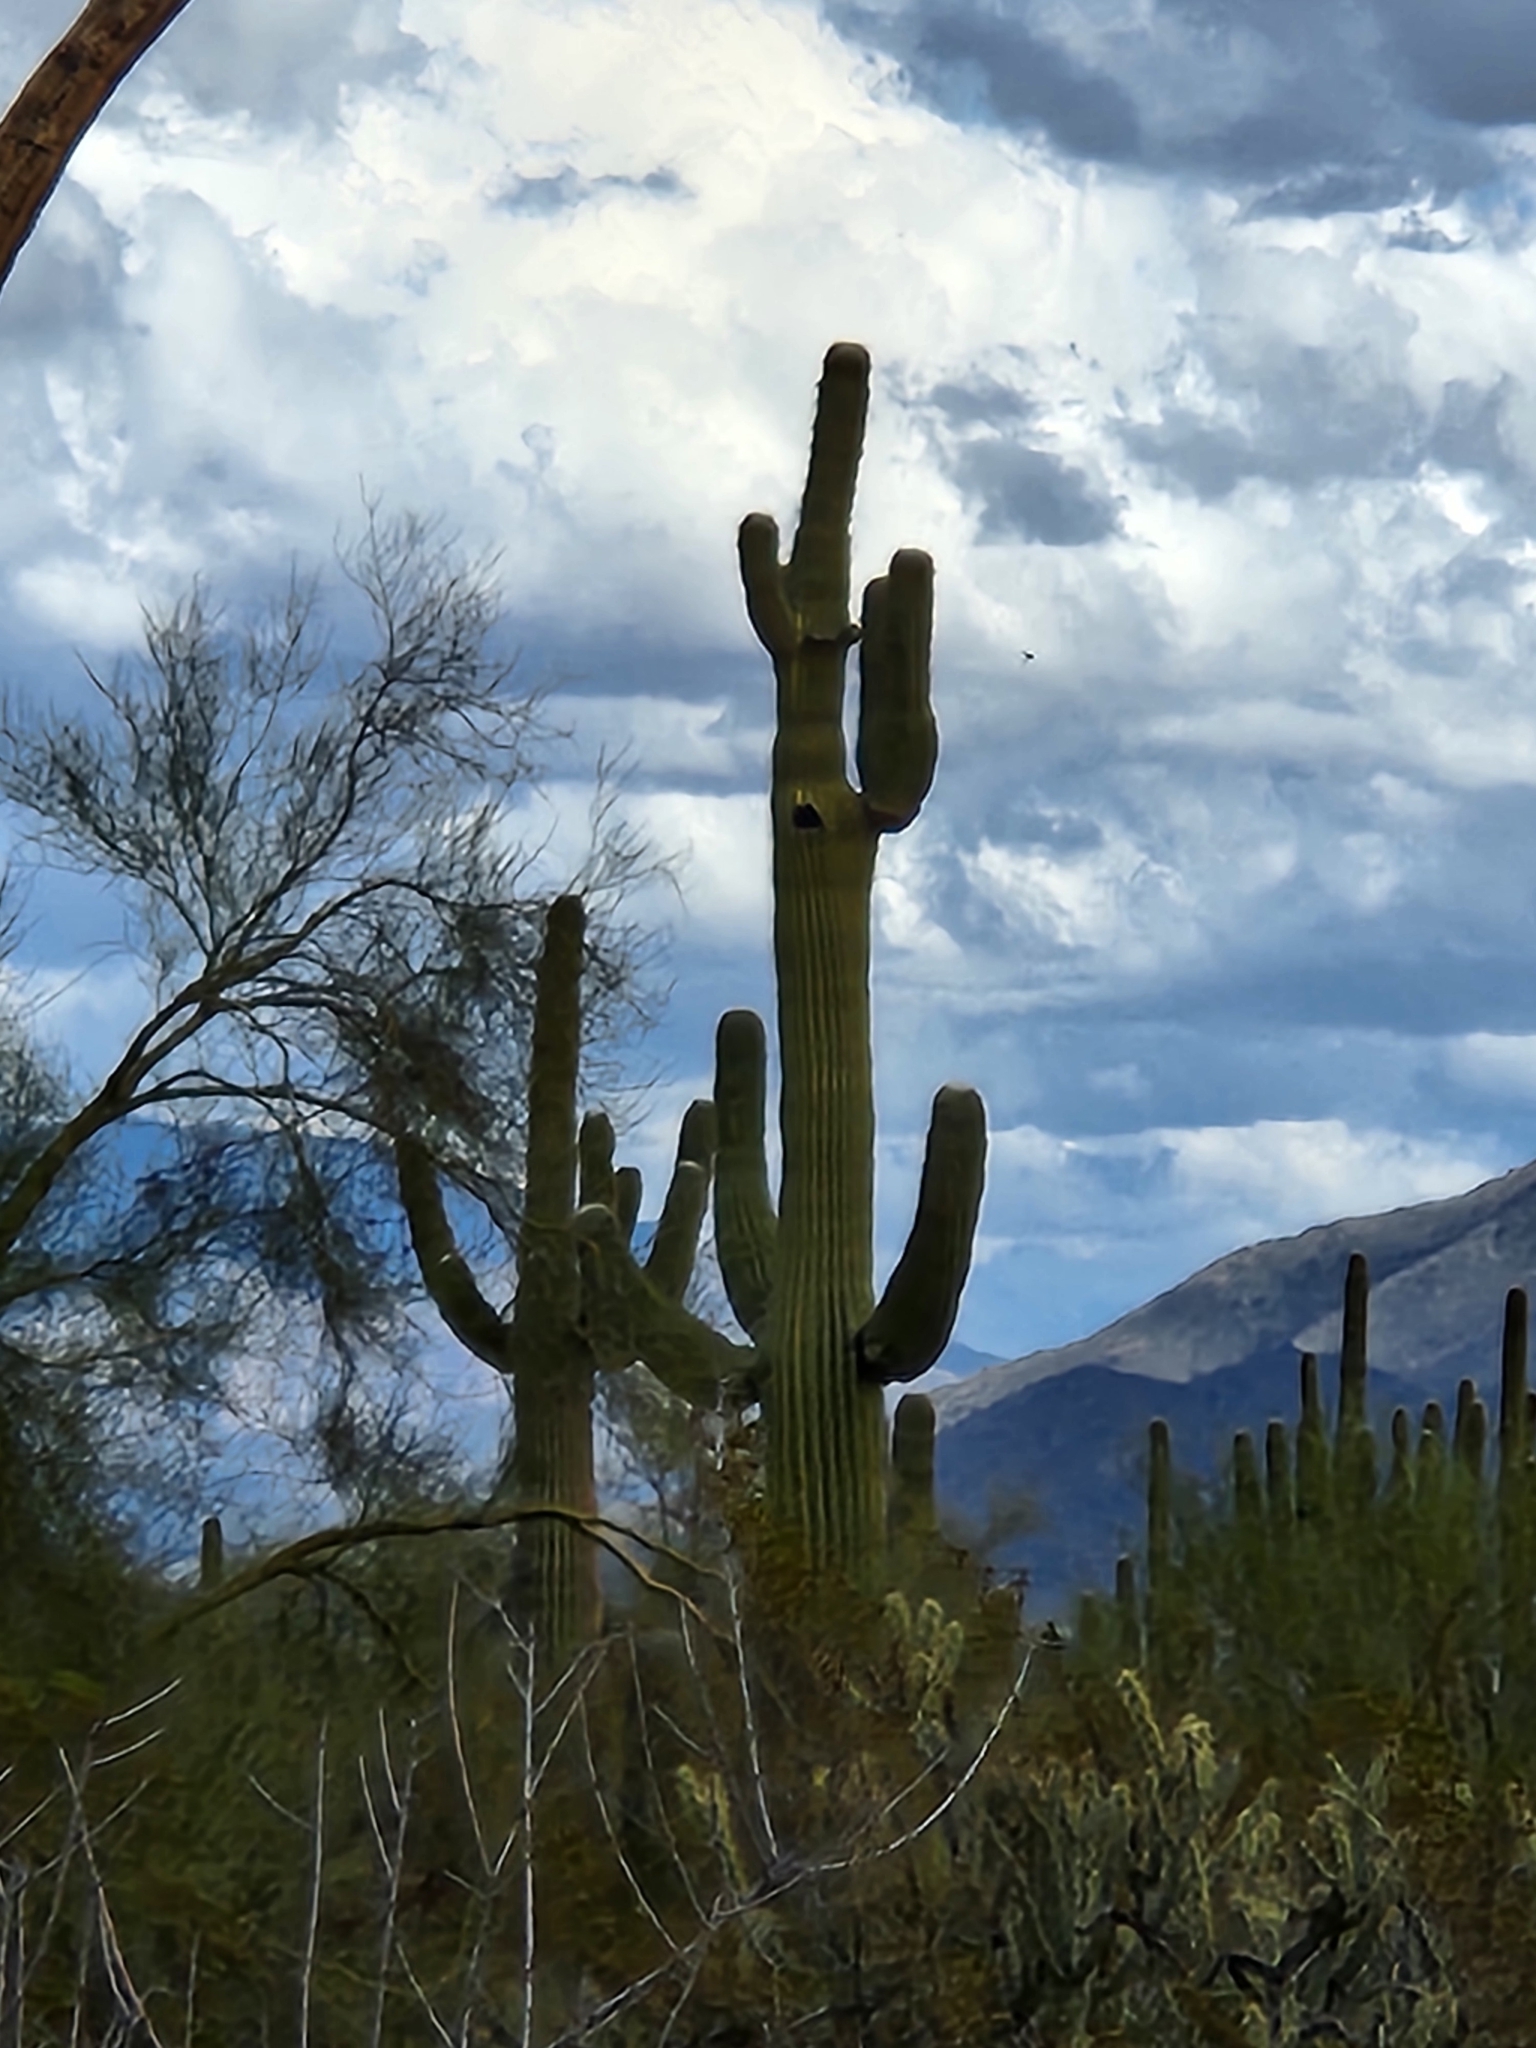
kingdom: Plantae
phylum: Tracheophyta
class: Magnoliopsida
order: Caryophyllales
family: Cactaceae
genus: Carnegiea
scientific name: Carnegiea gigantea
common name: Saguaro
